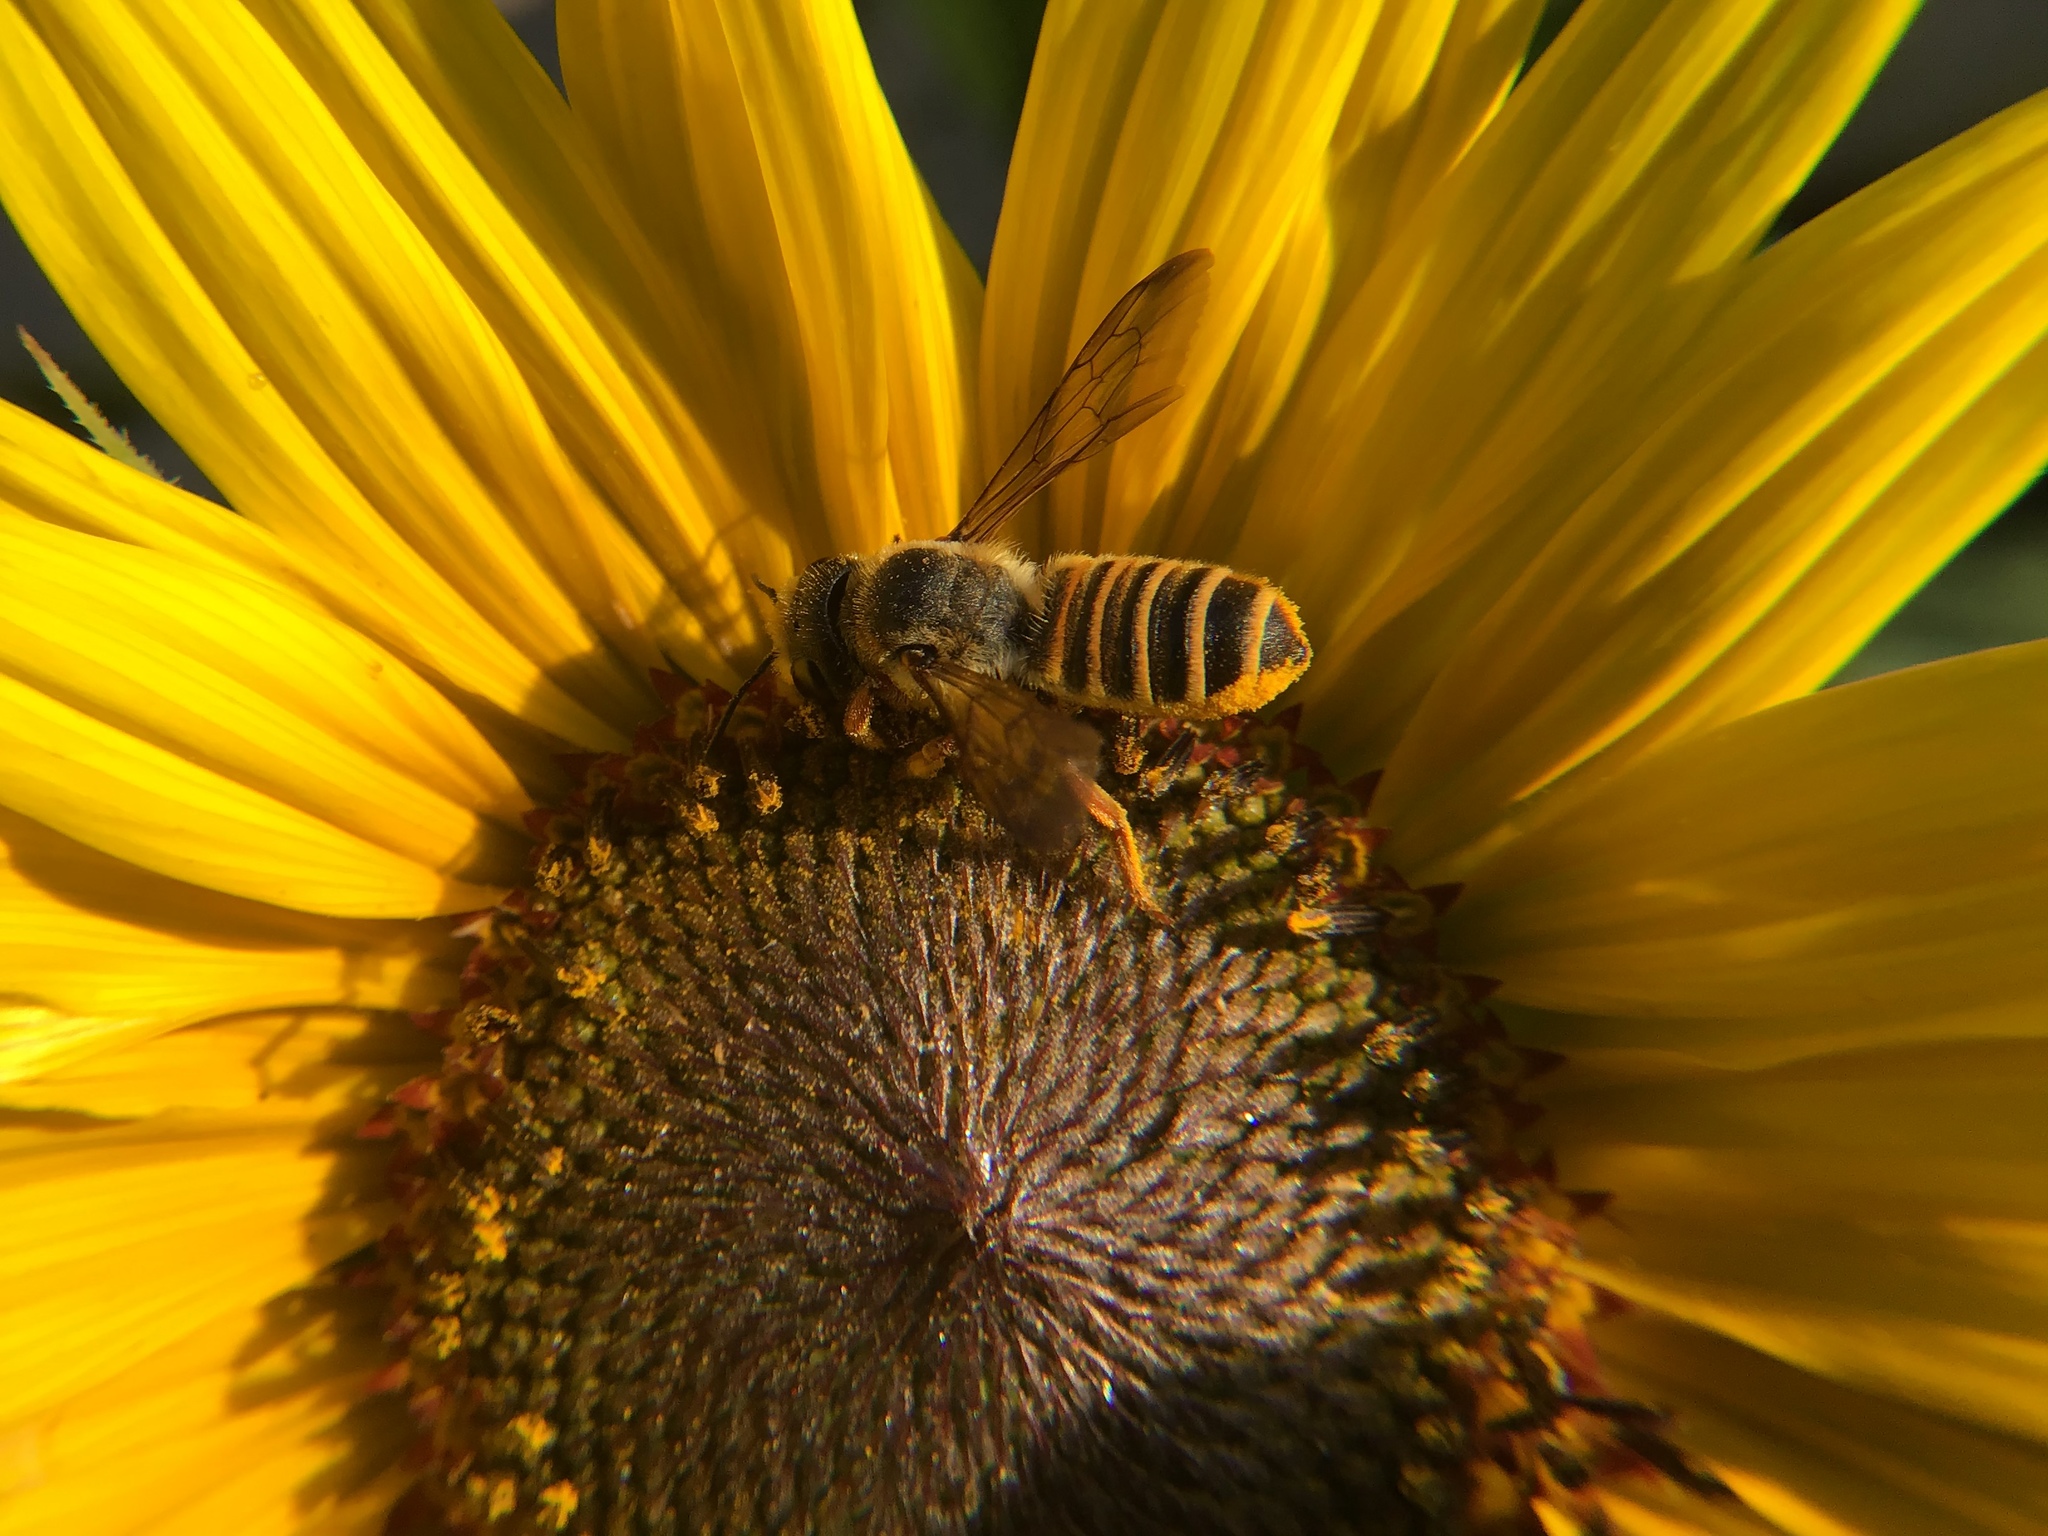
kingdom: Animalia
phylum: Arthropoda
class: Insecta
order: Hymenoptera
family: Megachilidae
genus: Megachile
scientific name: Megachile mellitarsis
